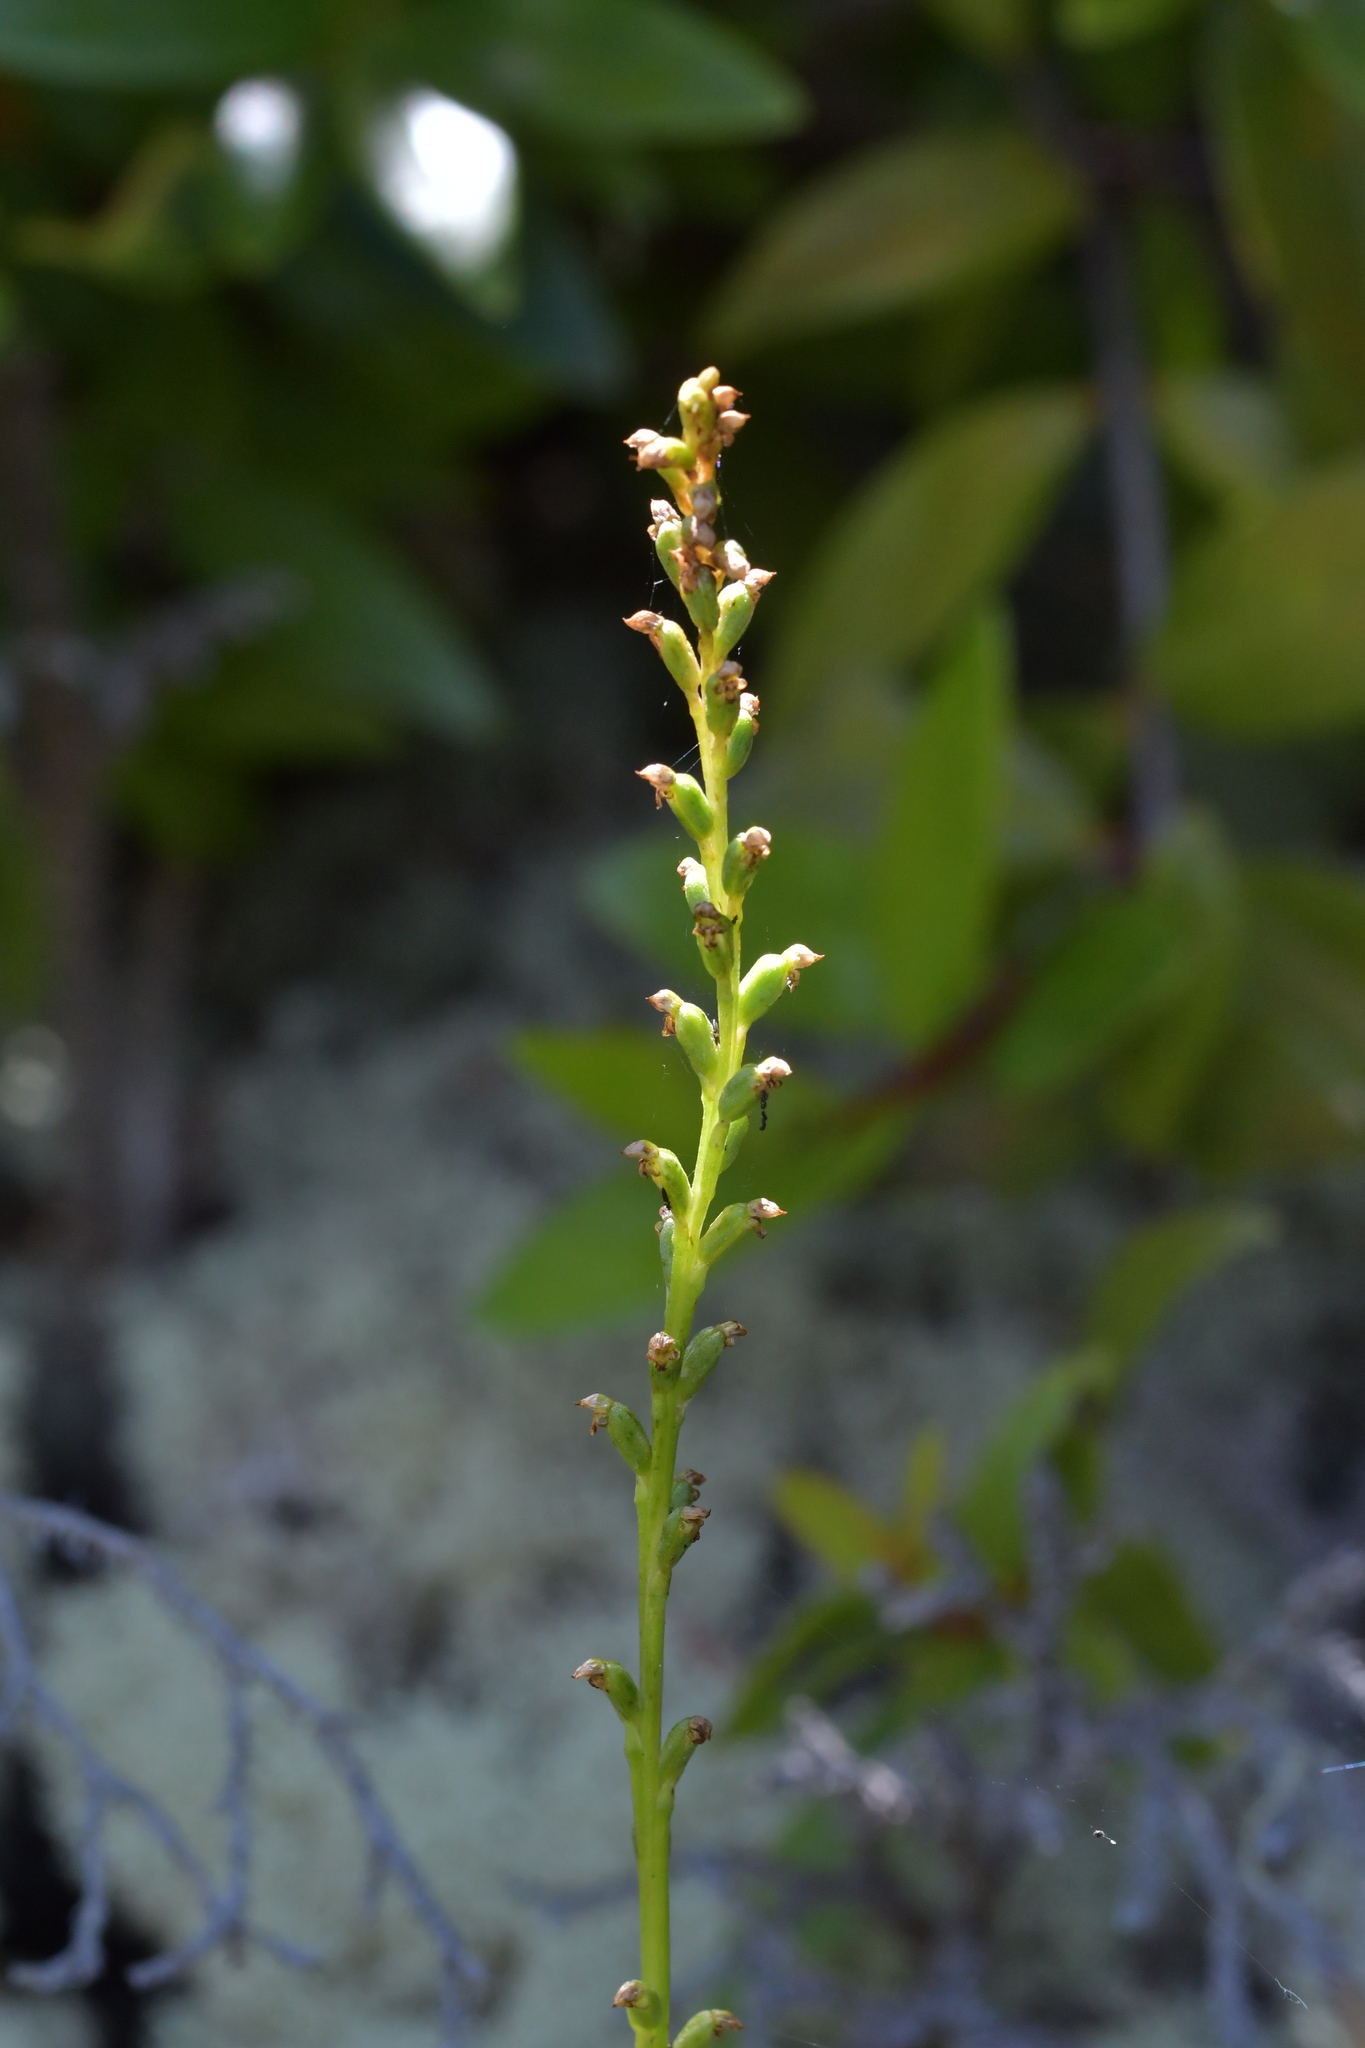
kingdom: Plantae
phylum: Tracheophyta
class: Liliopsida
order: Asparagales
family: Orchidaceae
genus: Microtis
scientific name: Microtis unifolia
